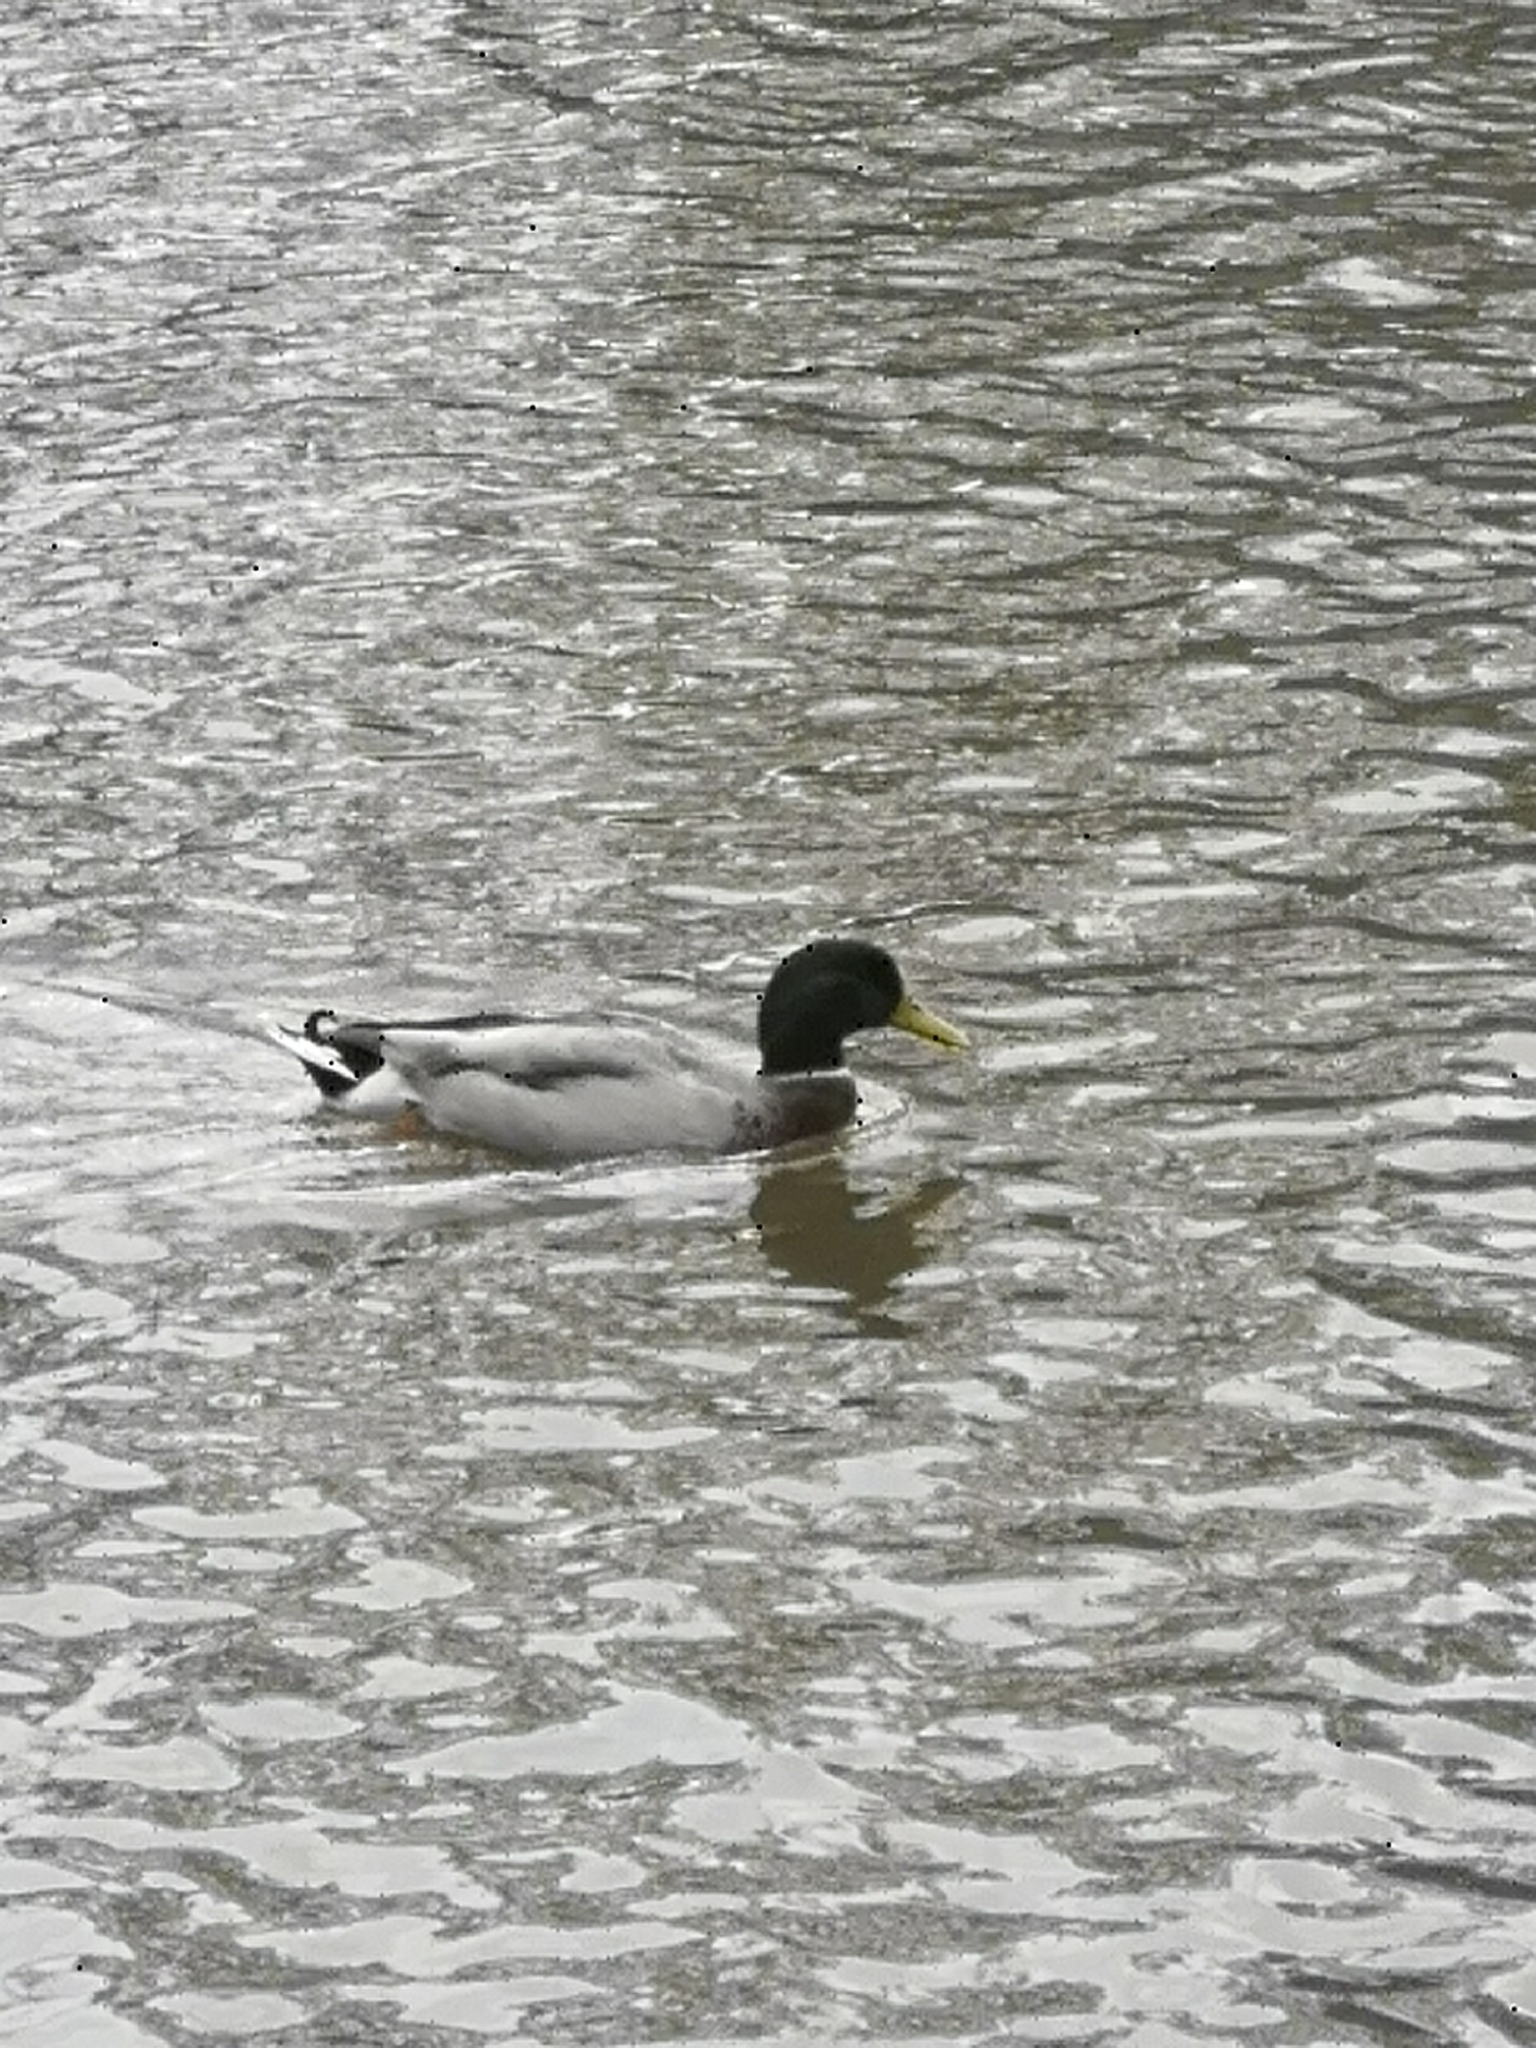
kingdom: Animalia
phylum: Chordata
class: Aves
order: Anseriformes
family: Anatidae
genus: Anas
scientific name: Anas platyrhynchos
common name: Mallard
